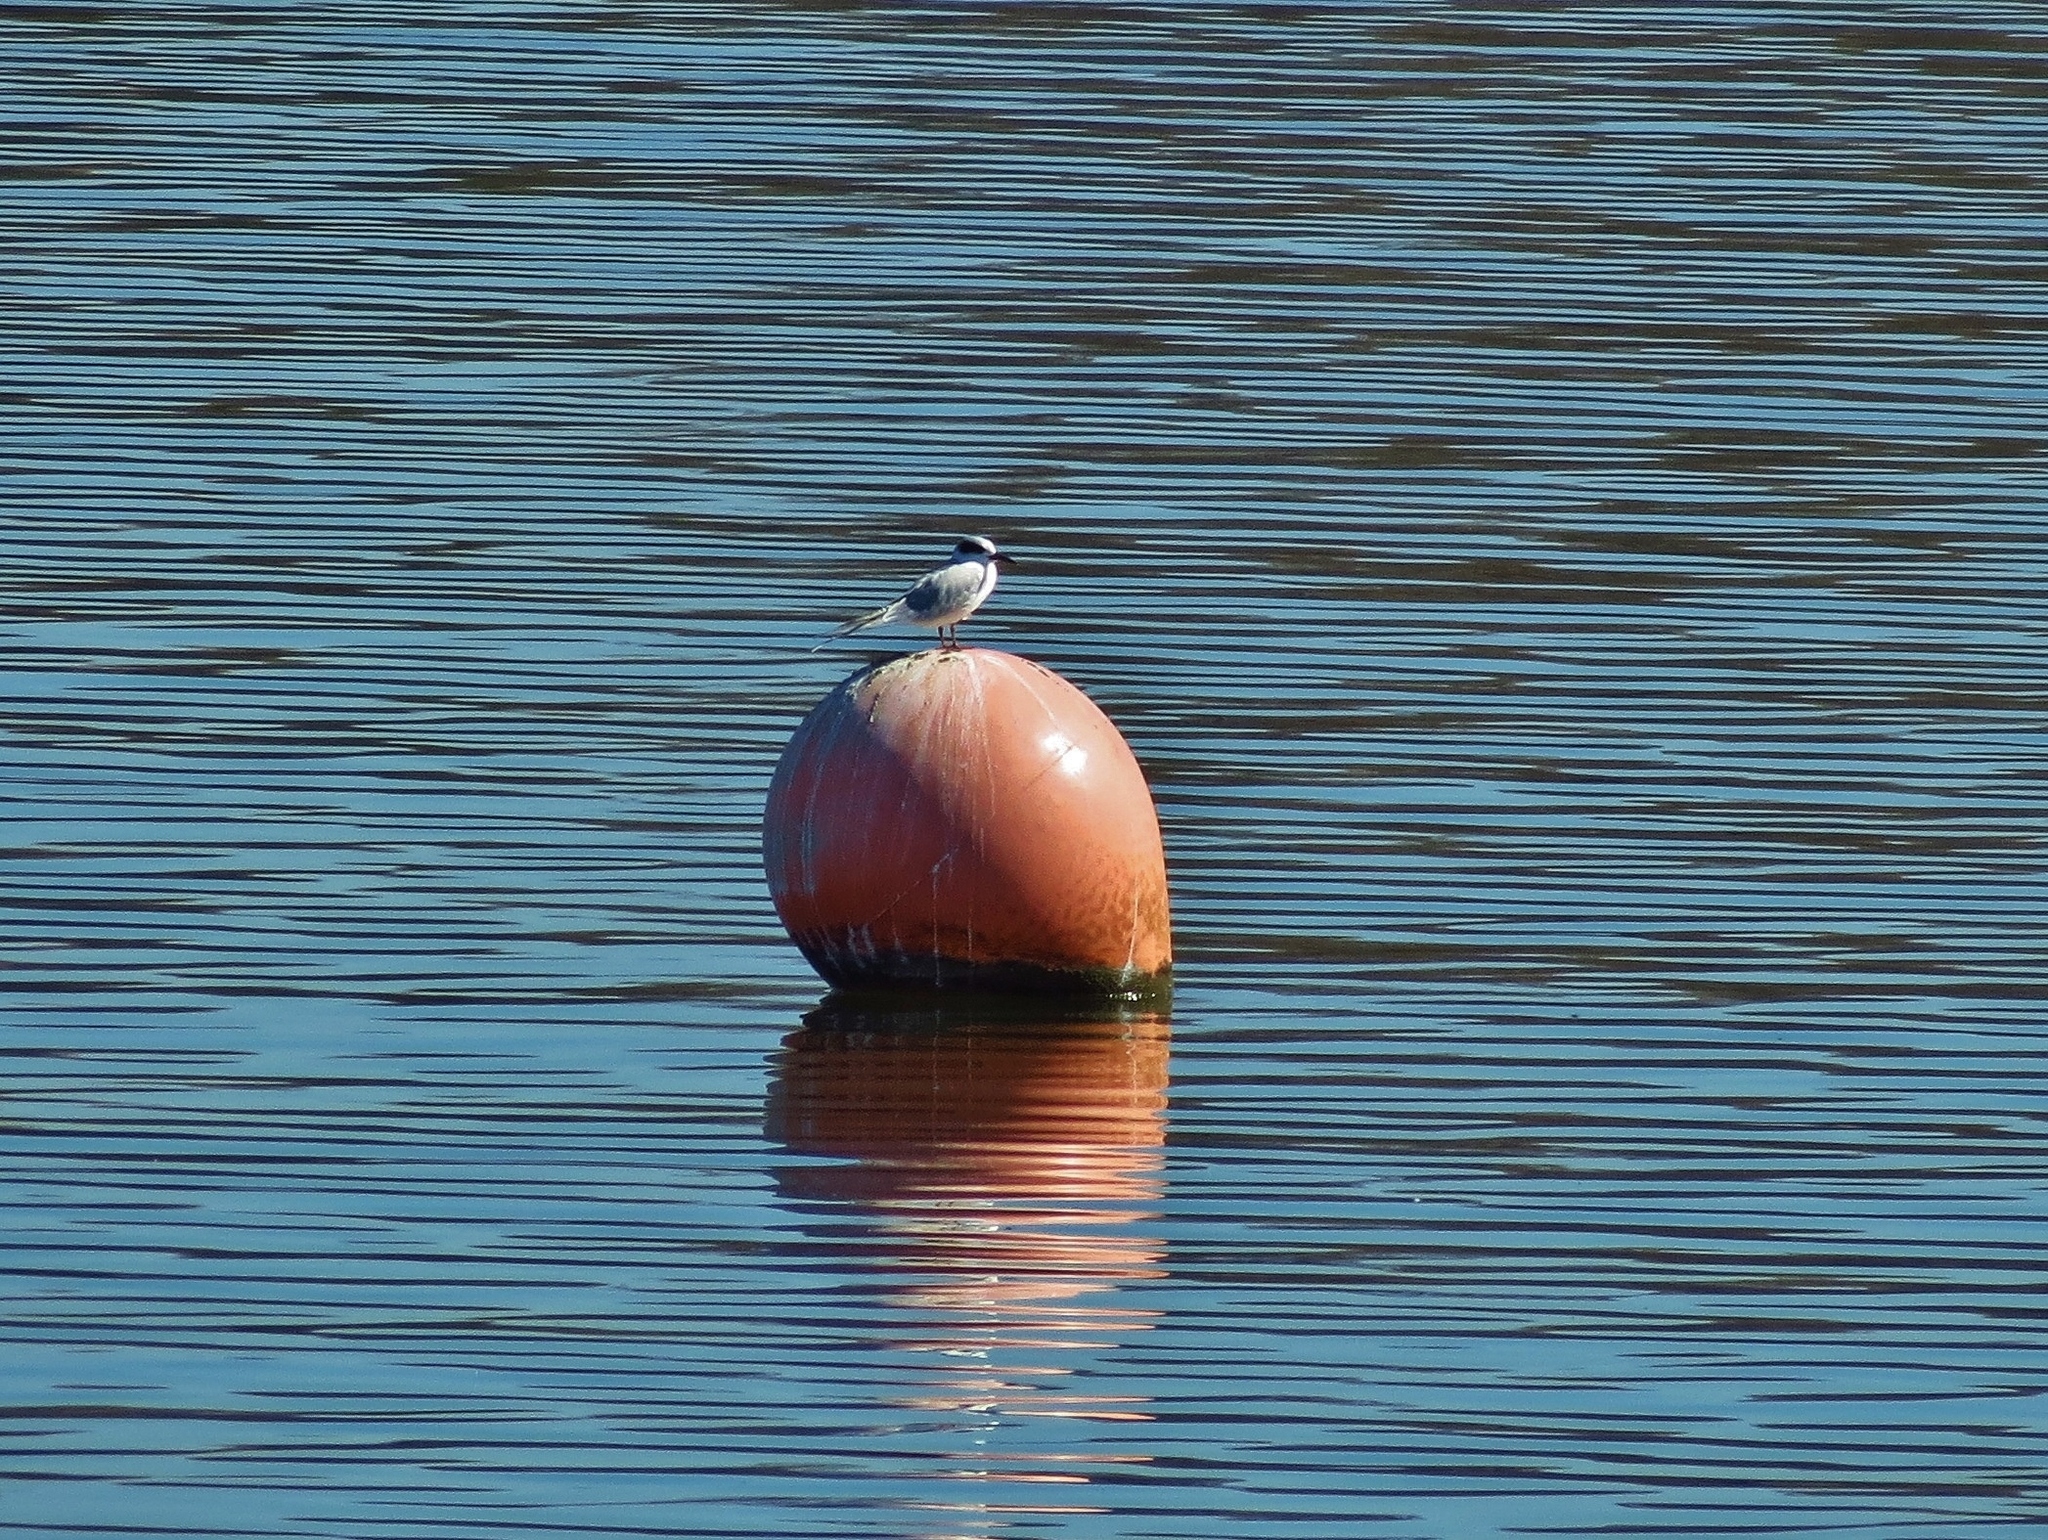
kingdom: Animalia
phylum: Chordata
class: Aves
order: Charadriiformes
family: Laridae
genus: Sterna
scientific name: Sterna forsteri
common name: Forster's tern
